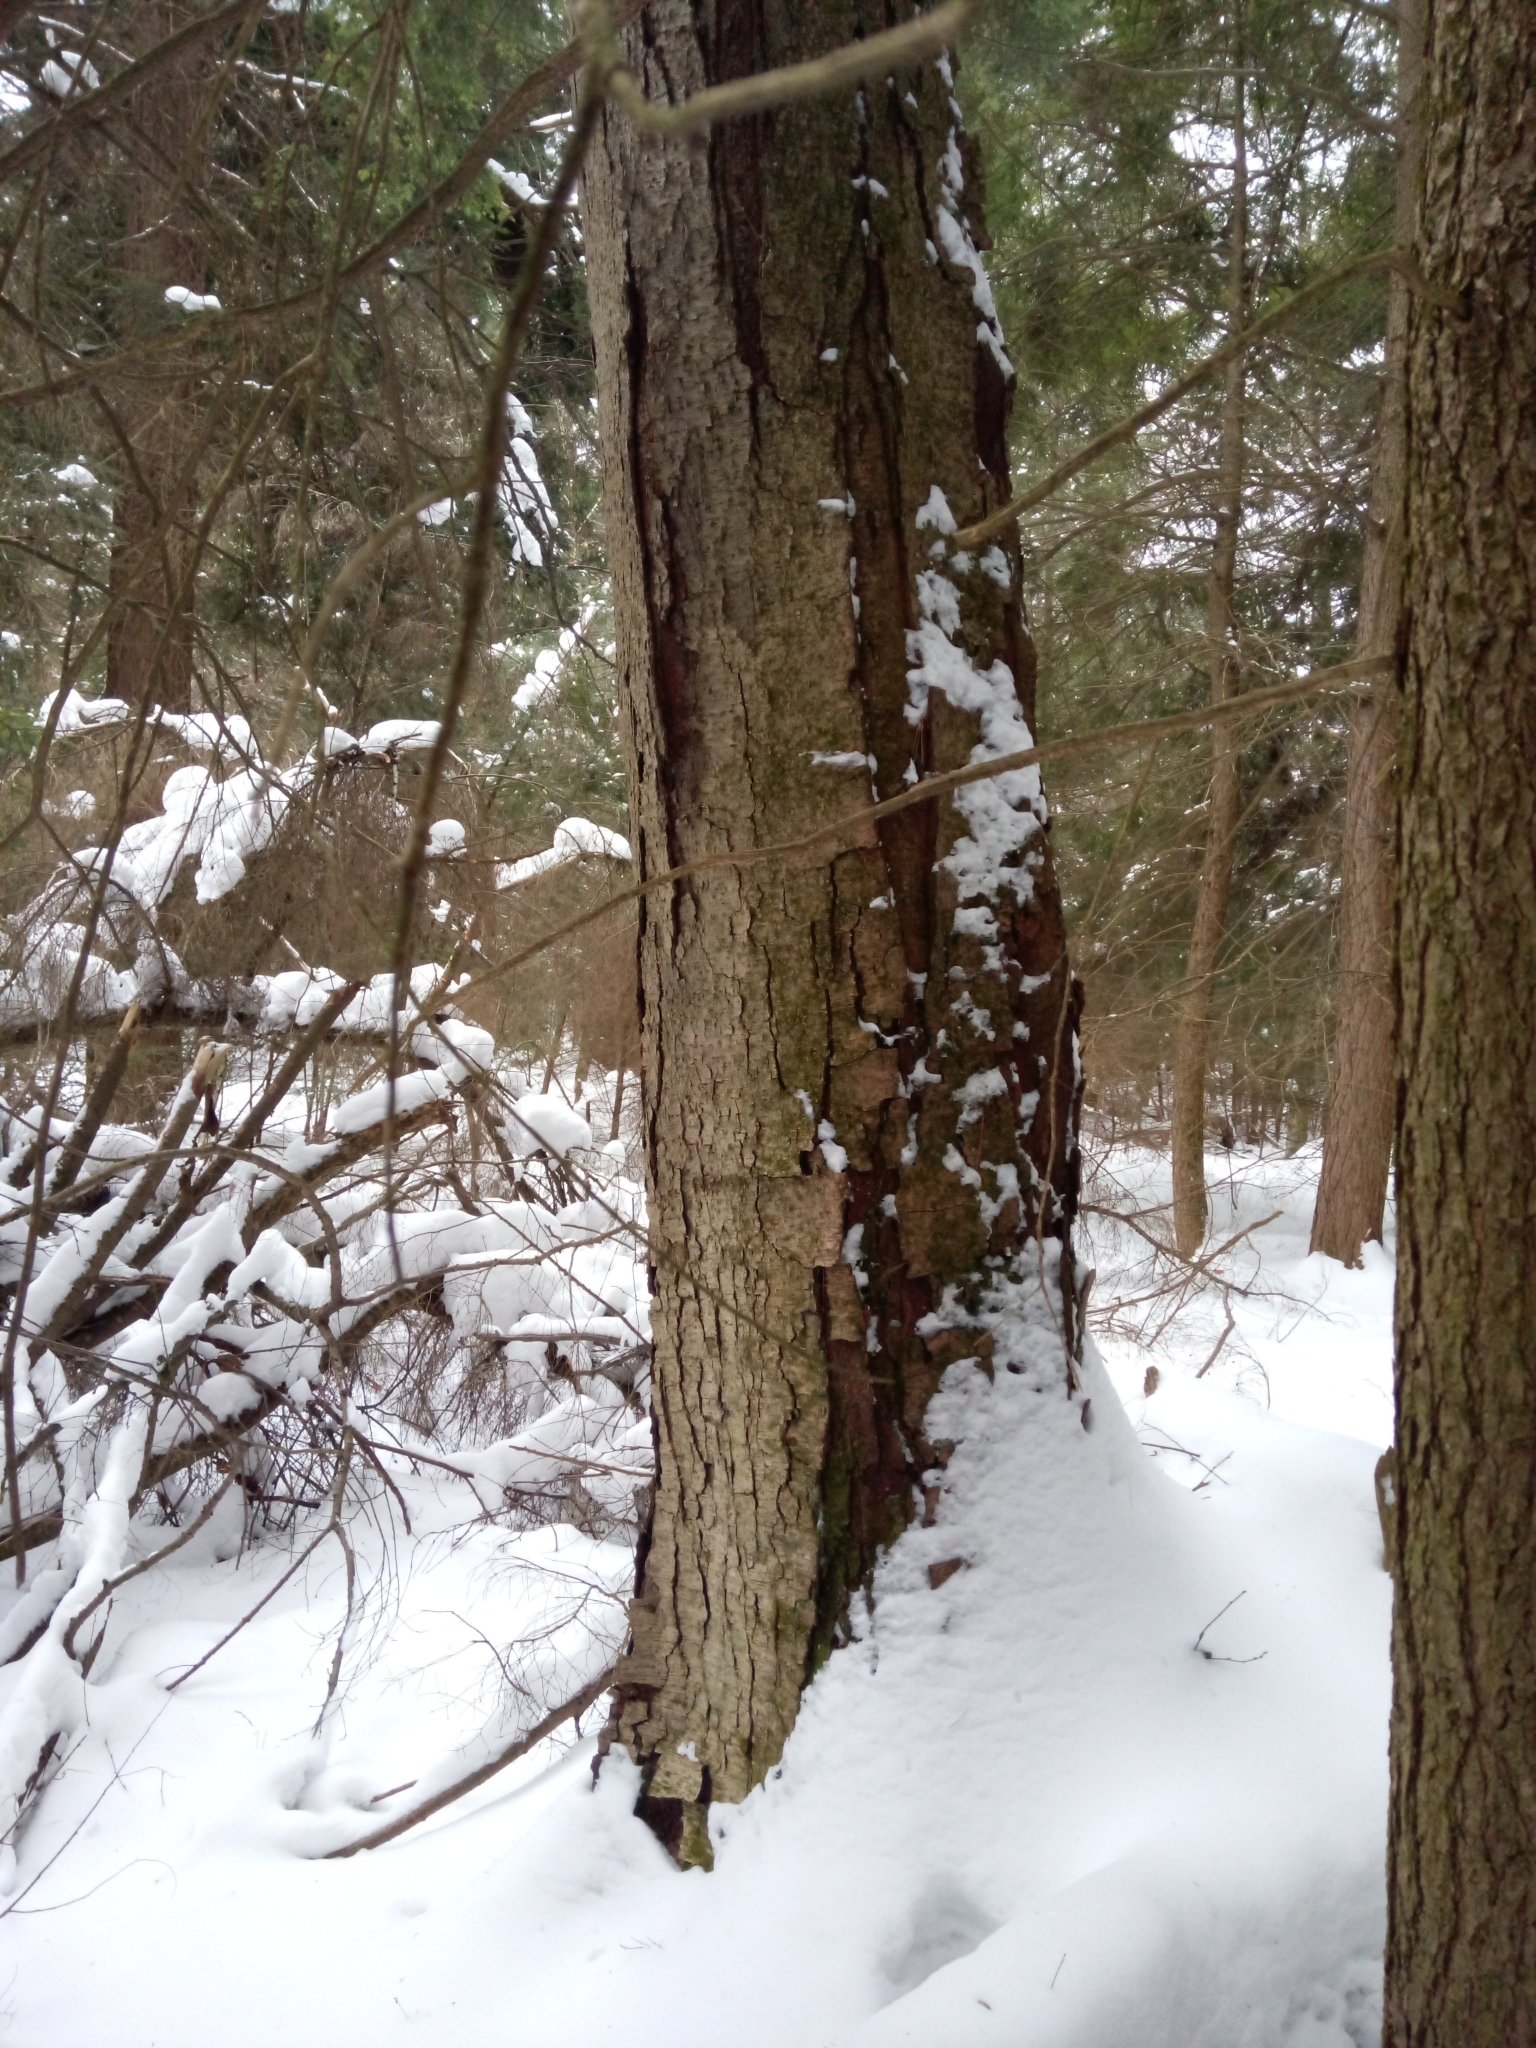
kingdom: Plantae
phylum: Tracheophyta
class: Magnoliopsida
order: Fagales
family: Betulaceae
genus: Betula
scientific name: Betula lenta
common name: Black birch
